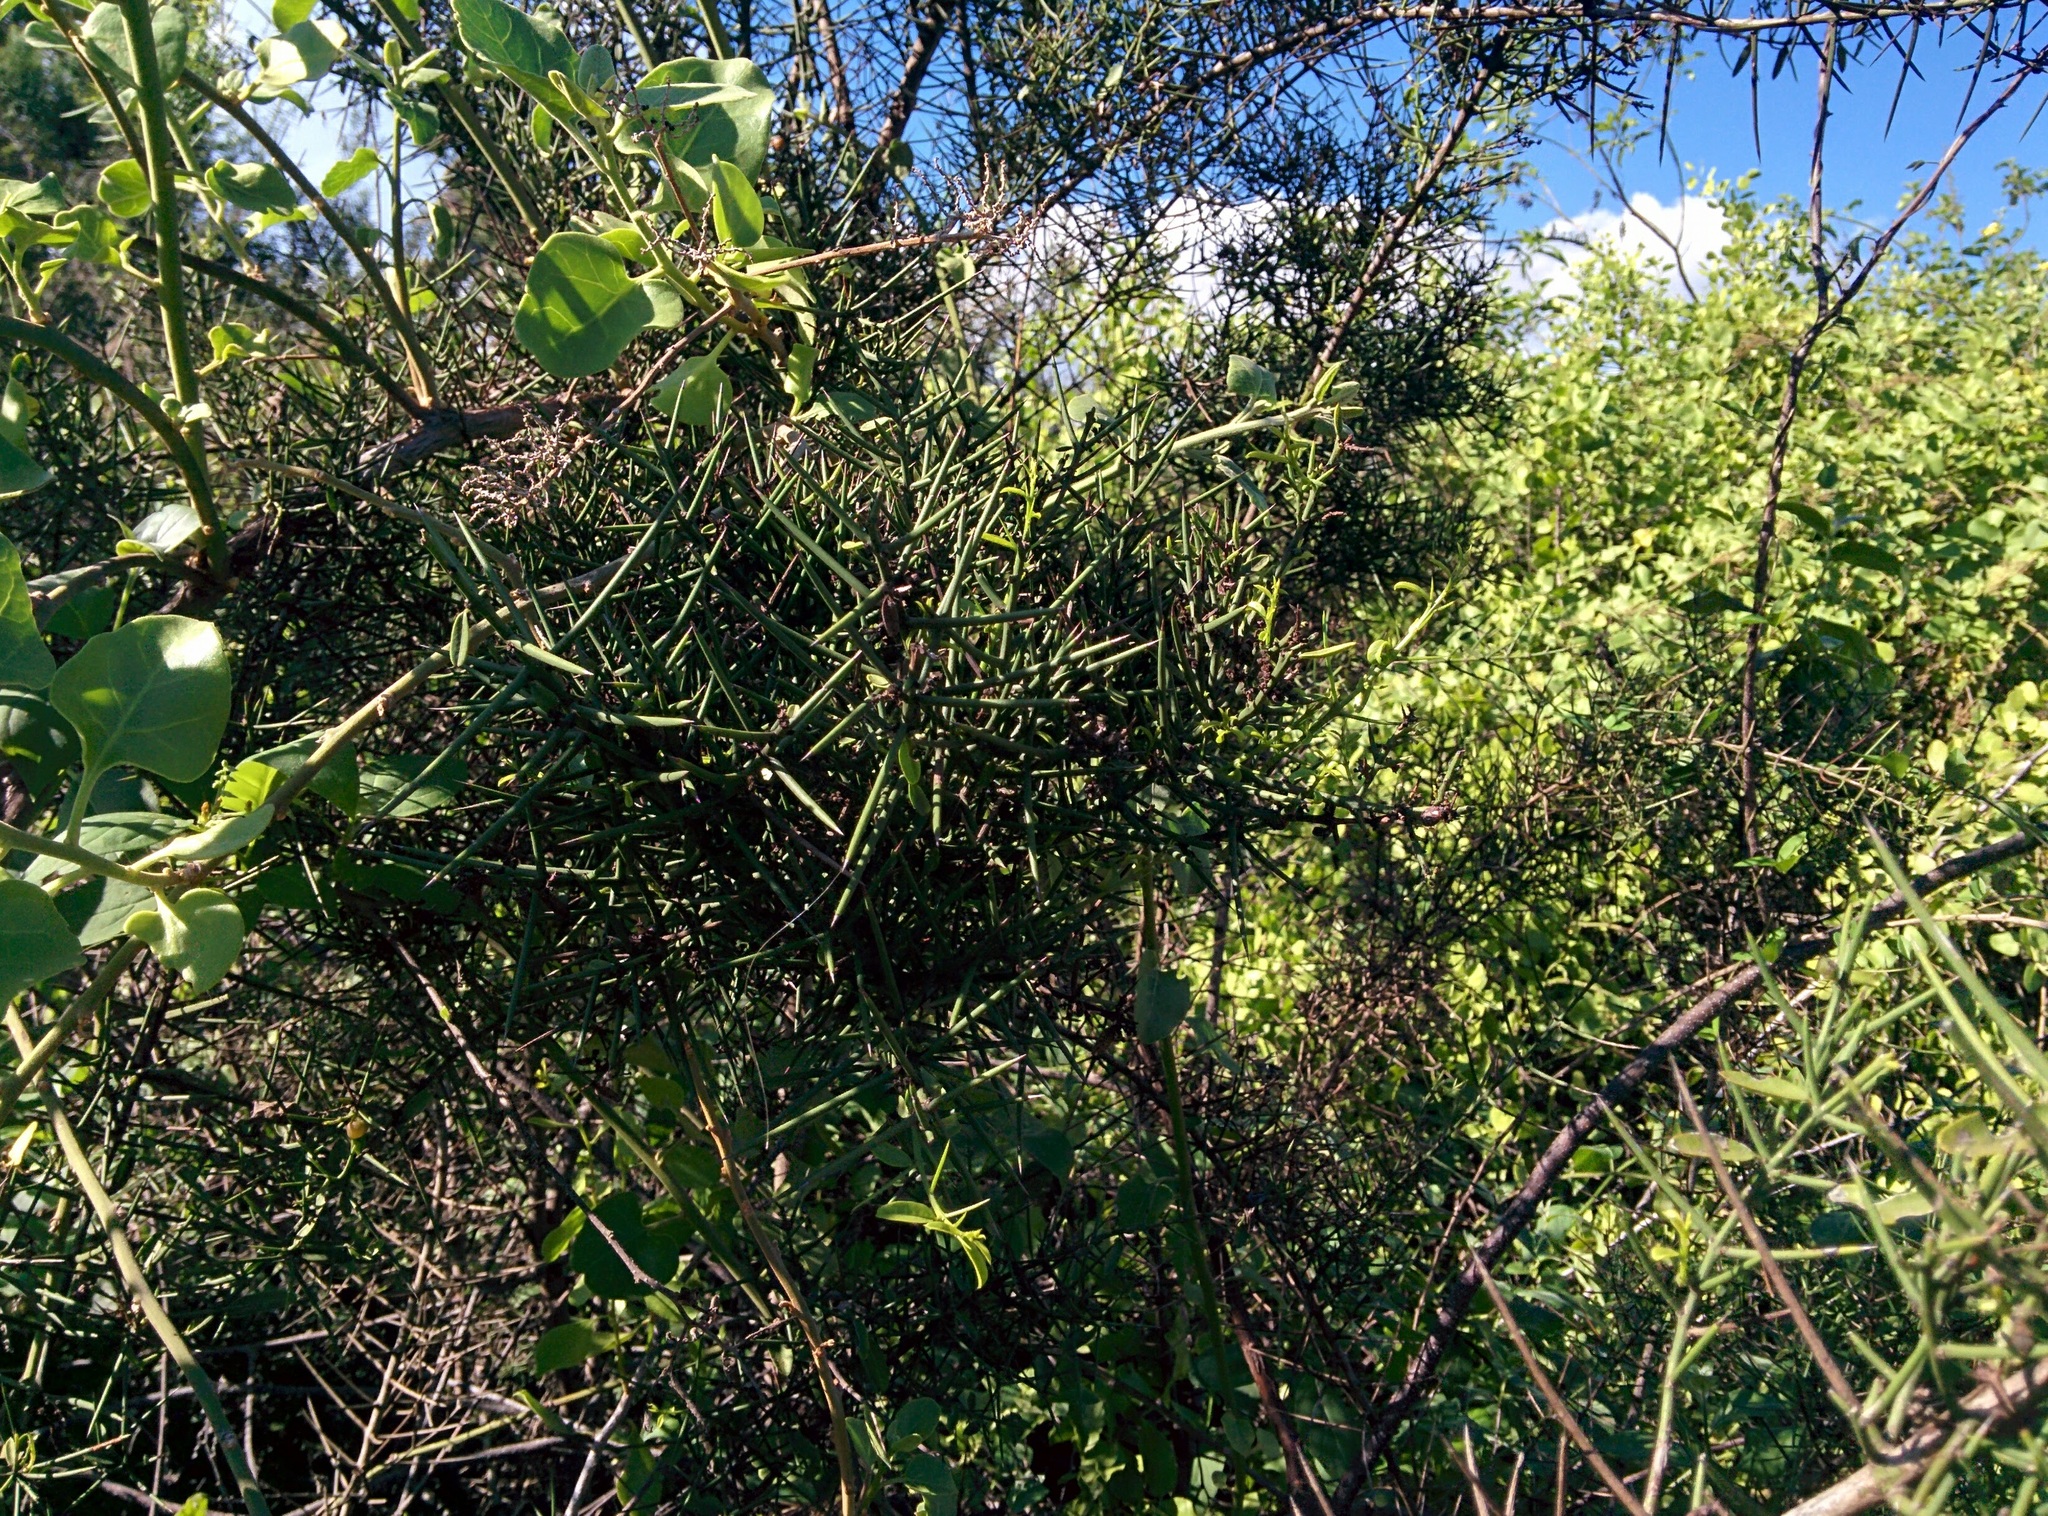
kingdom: Plantae
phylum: Tracheophyta
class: Magnoliopsida
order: Rosales
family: Rhamnaceae
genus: Scutia
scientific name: Scutia spicata
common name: Spiny bush
